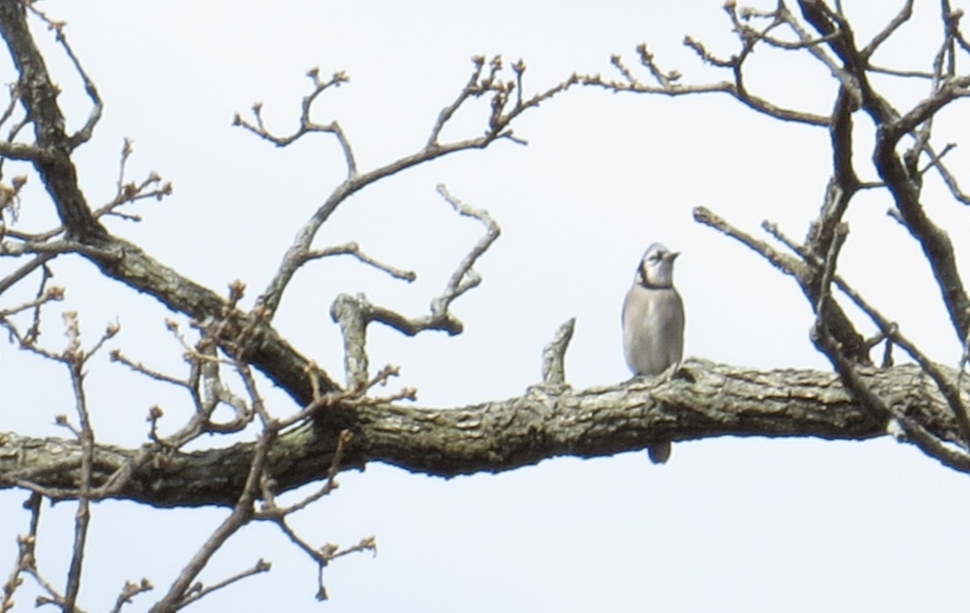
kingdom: Animalia
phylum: Chordata
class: Aves
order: Passeriformes
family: Corvidae
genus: Cyanocitta
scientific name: Cyanocitta cristata
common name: Blue jay
